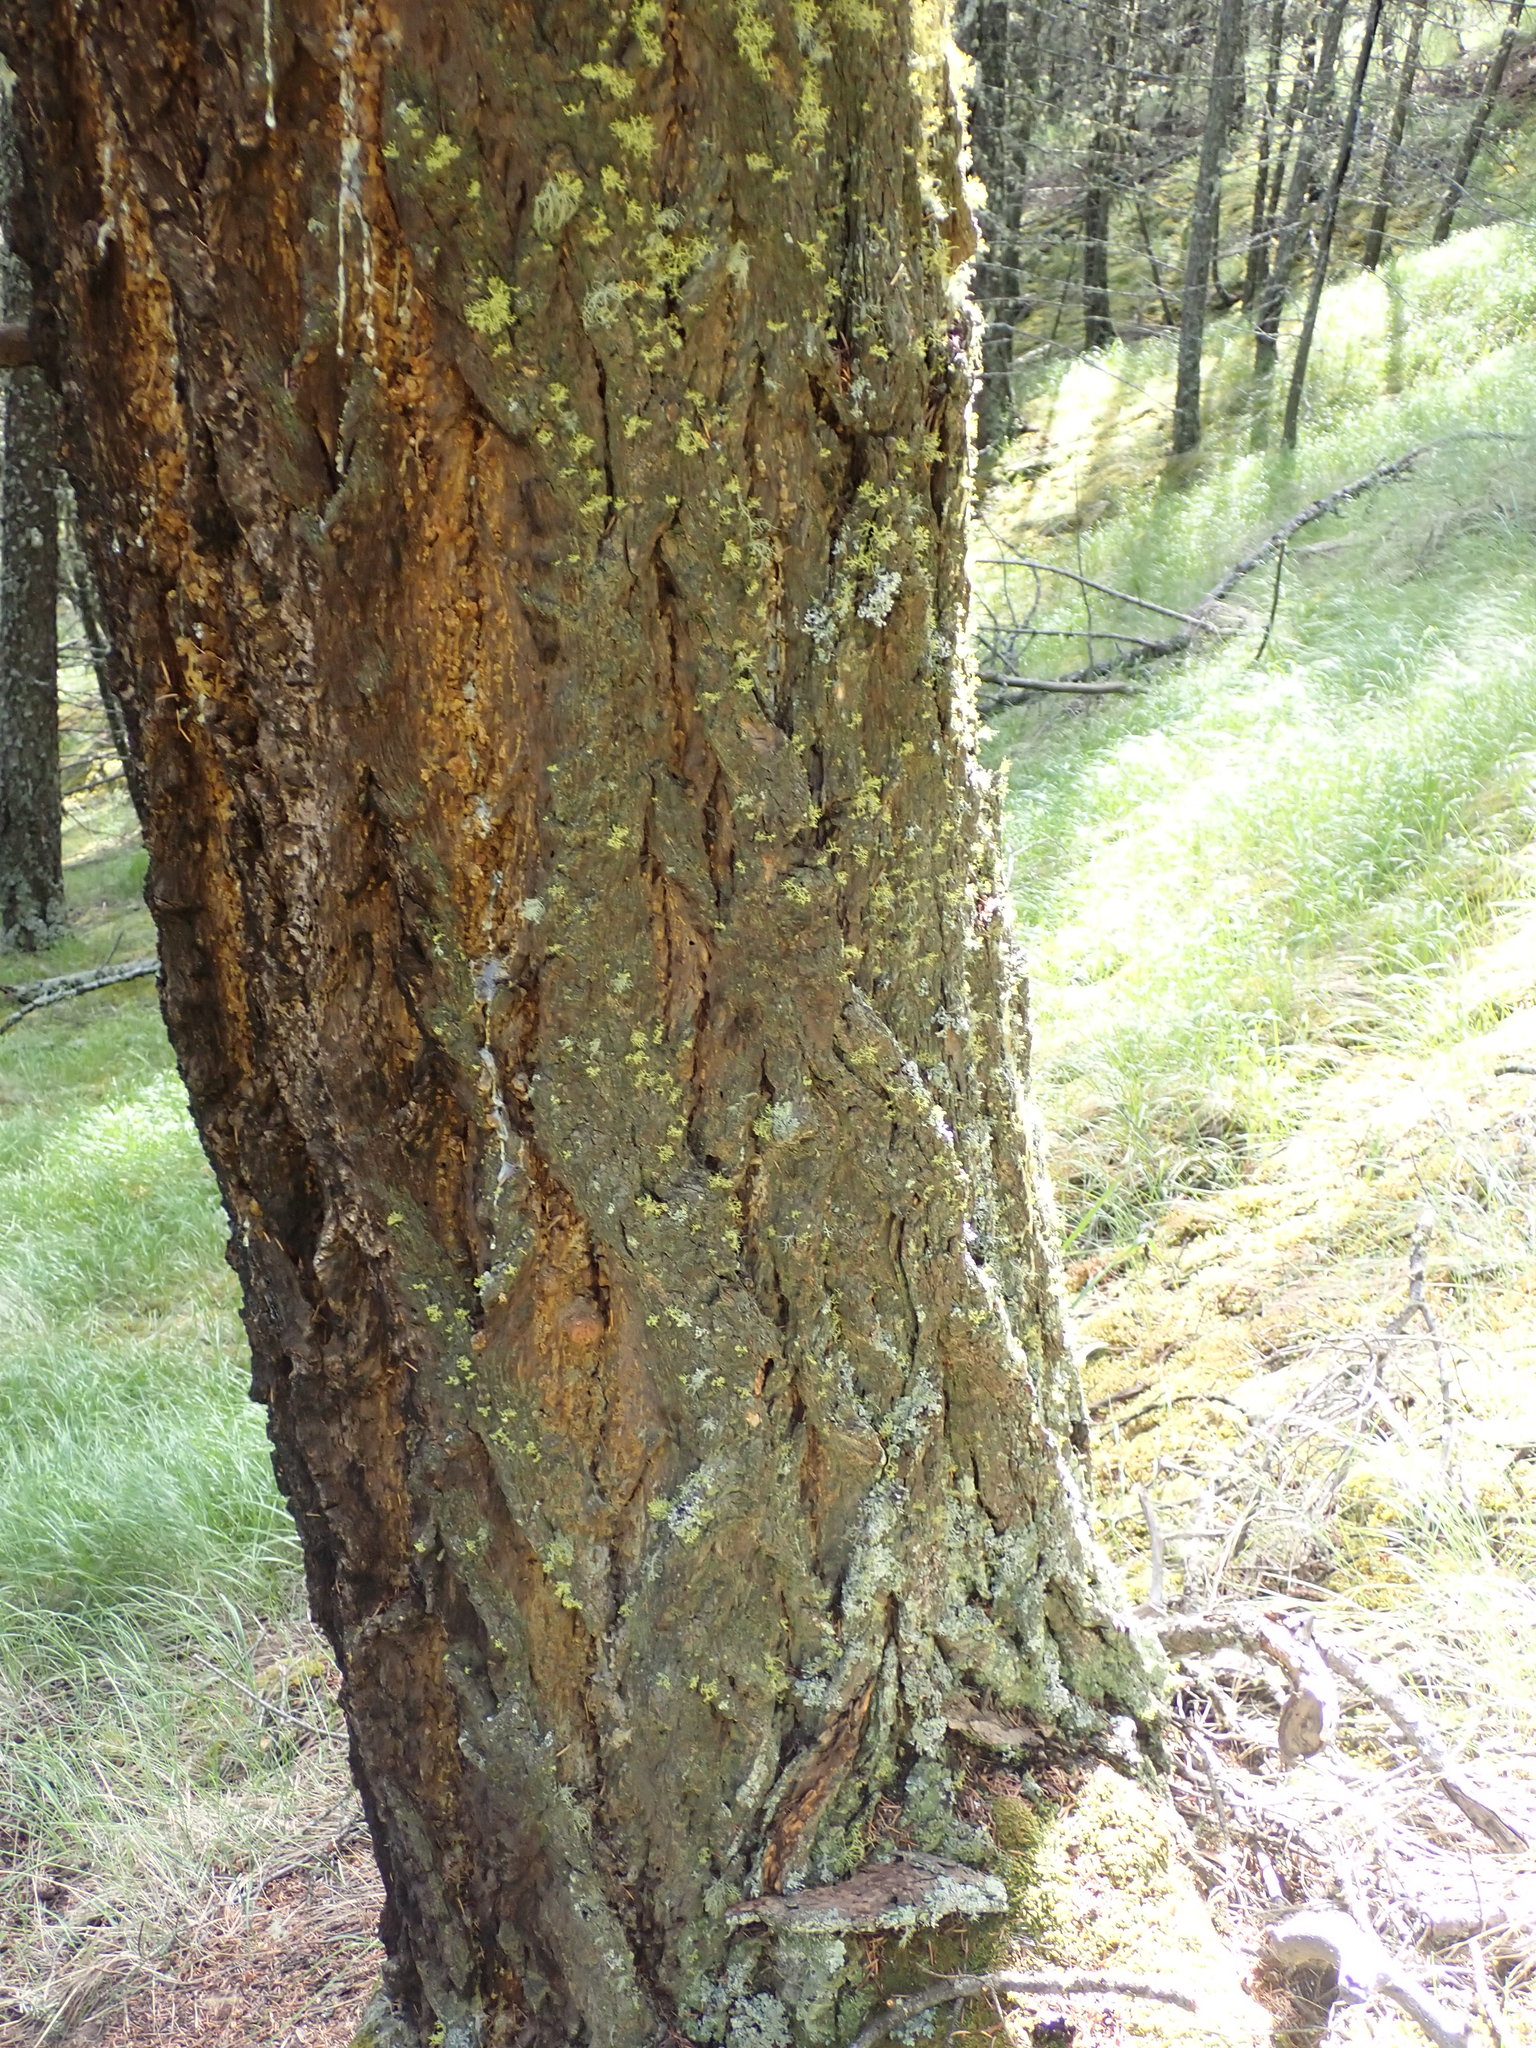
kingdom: Plantae
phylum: Tracheophyta
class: Pinopsida
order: Pinales
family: Pinaceae
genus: Pseudotsuga
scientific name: Pseudotsuga menziesii
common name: Douglas fir
